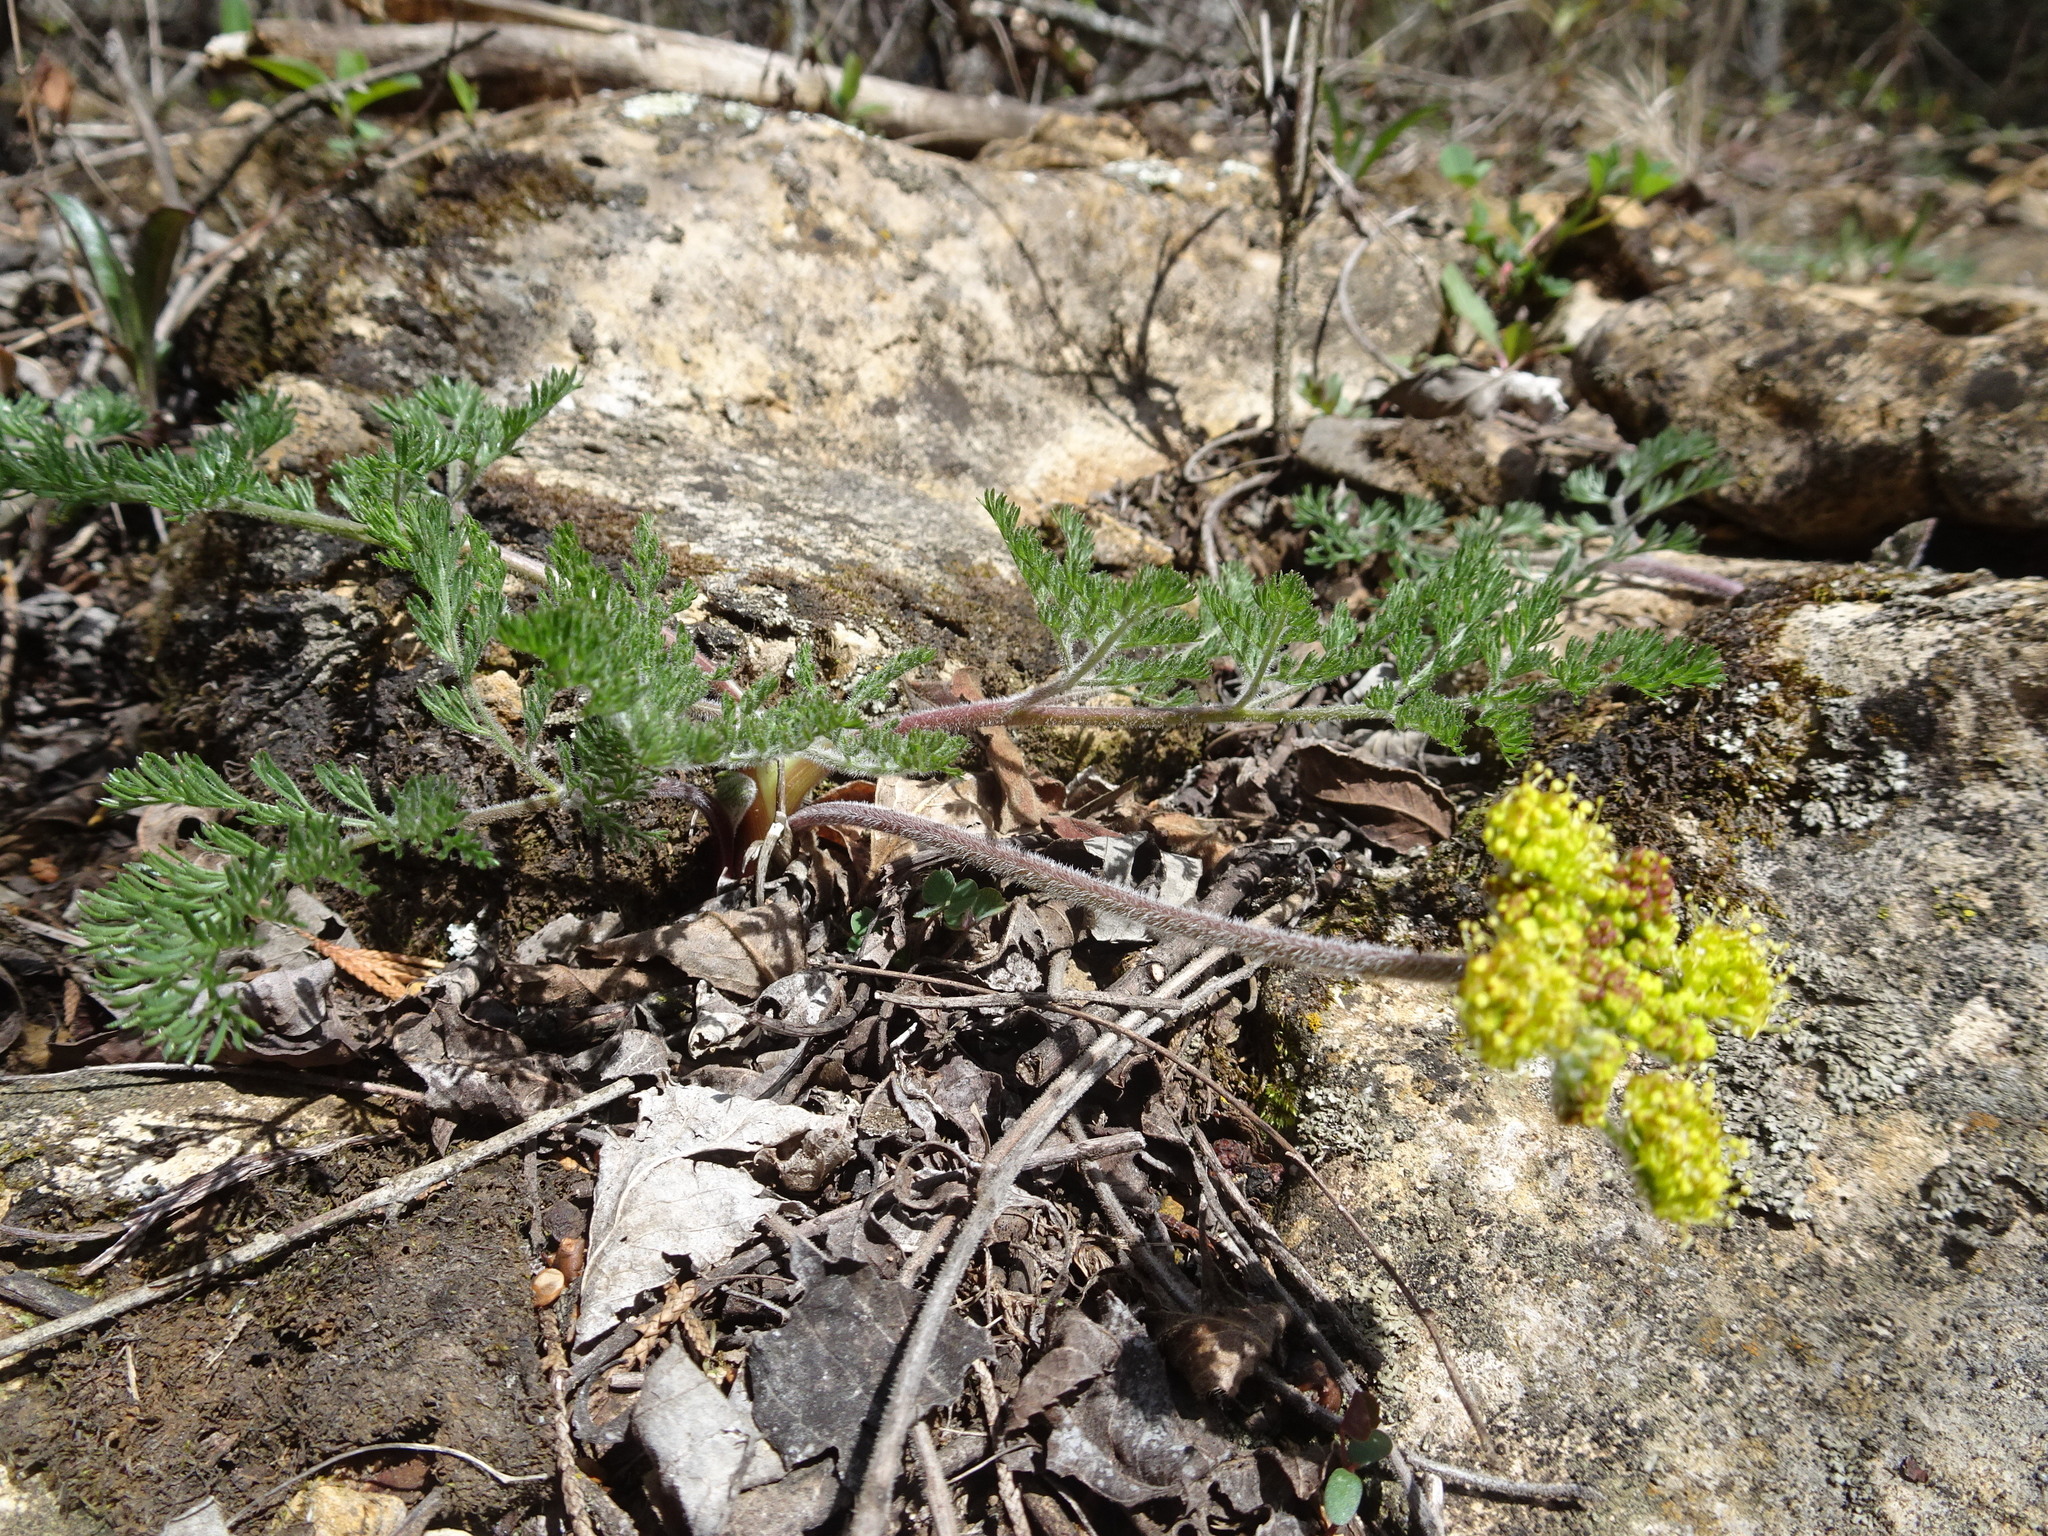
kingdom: Plantae
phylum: Tracheophyta
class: Magnoliopsida
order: Apiales
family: Apiaceae
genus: Lomatium
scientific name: Lomatium foeniculaceum
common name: Desert-parsley
